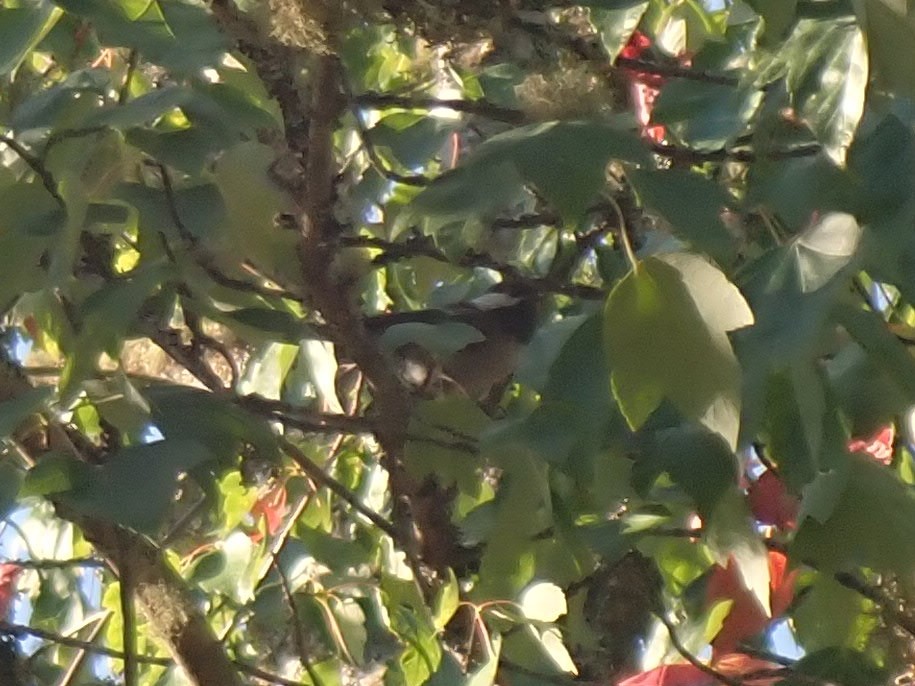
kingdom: Animalia
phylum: Chordata
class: Aves
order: Passeriformes
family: Paridae
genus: Poecile
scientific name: Poecile atricapillus
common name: Black-capped chickadee
